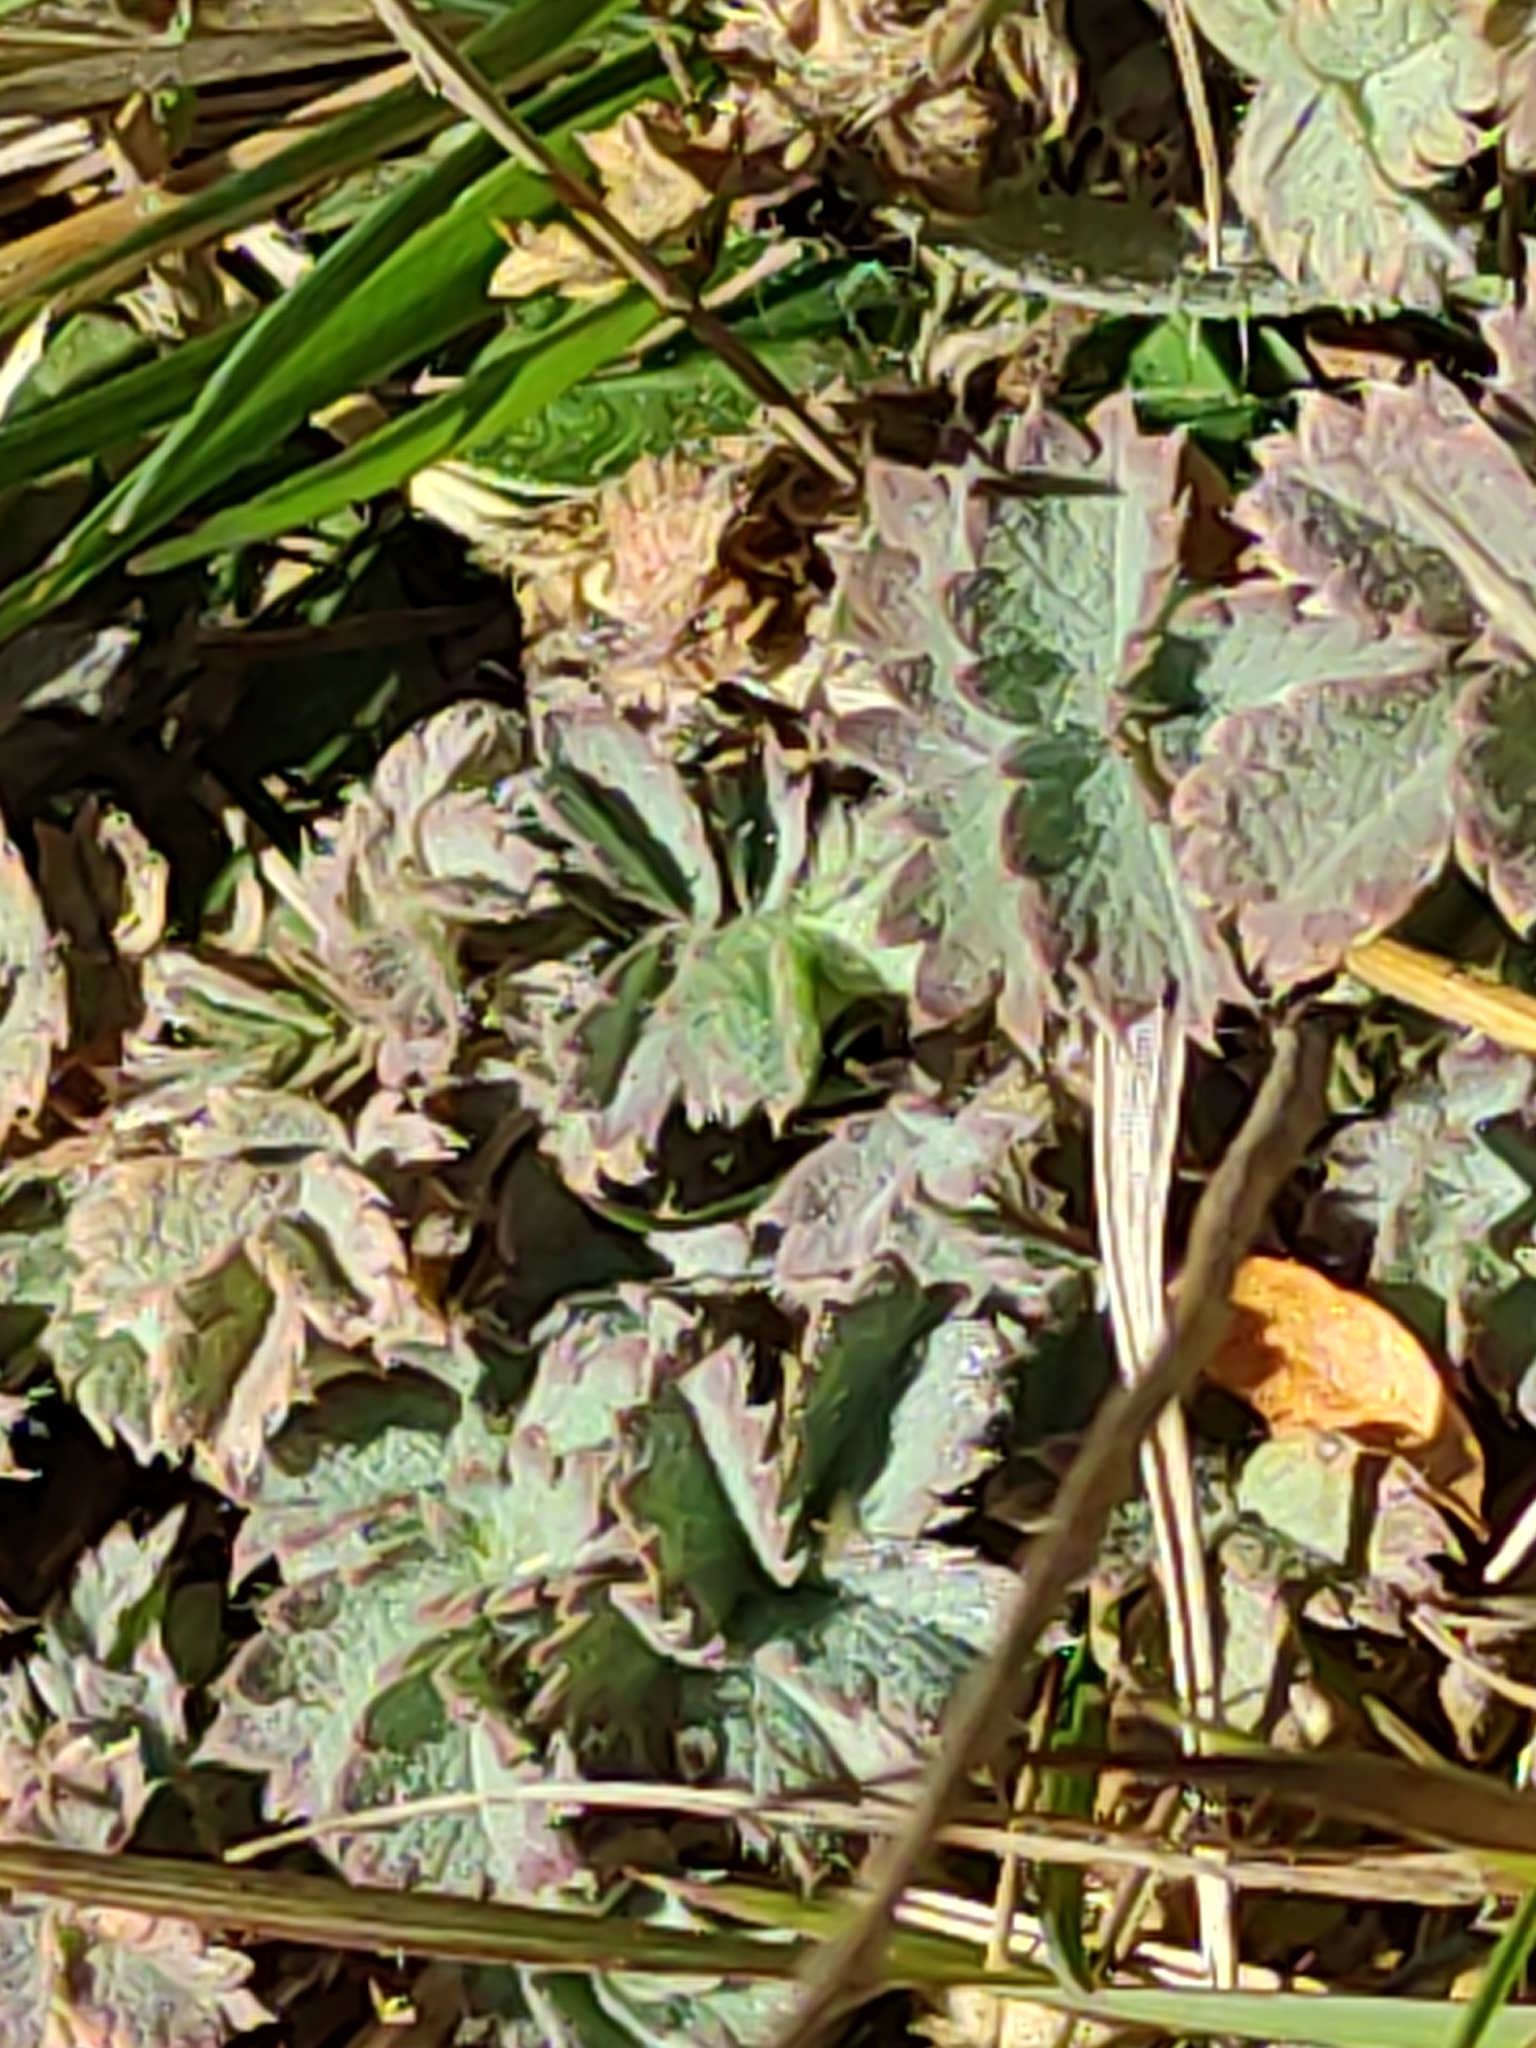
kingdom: Plantae
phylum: Tracheophyta
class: Magnoliopsida
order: Rosales
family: Rosaceae
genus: Acaena
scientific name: Acaena caesiiglauca
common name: Glaucous pirri-pirri-bur
